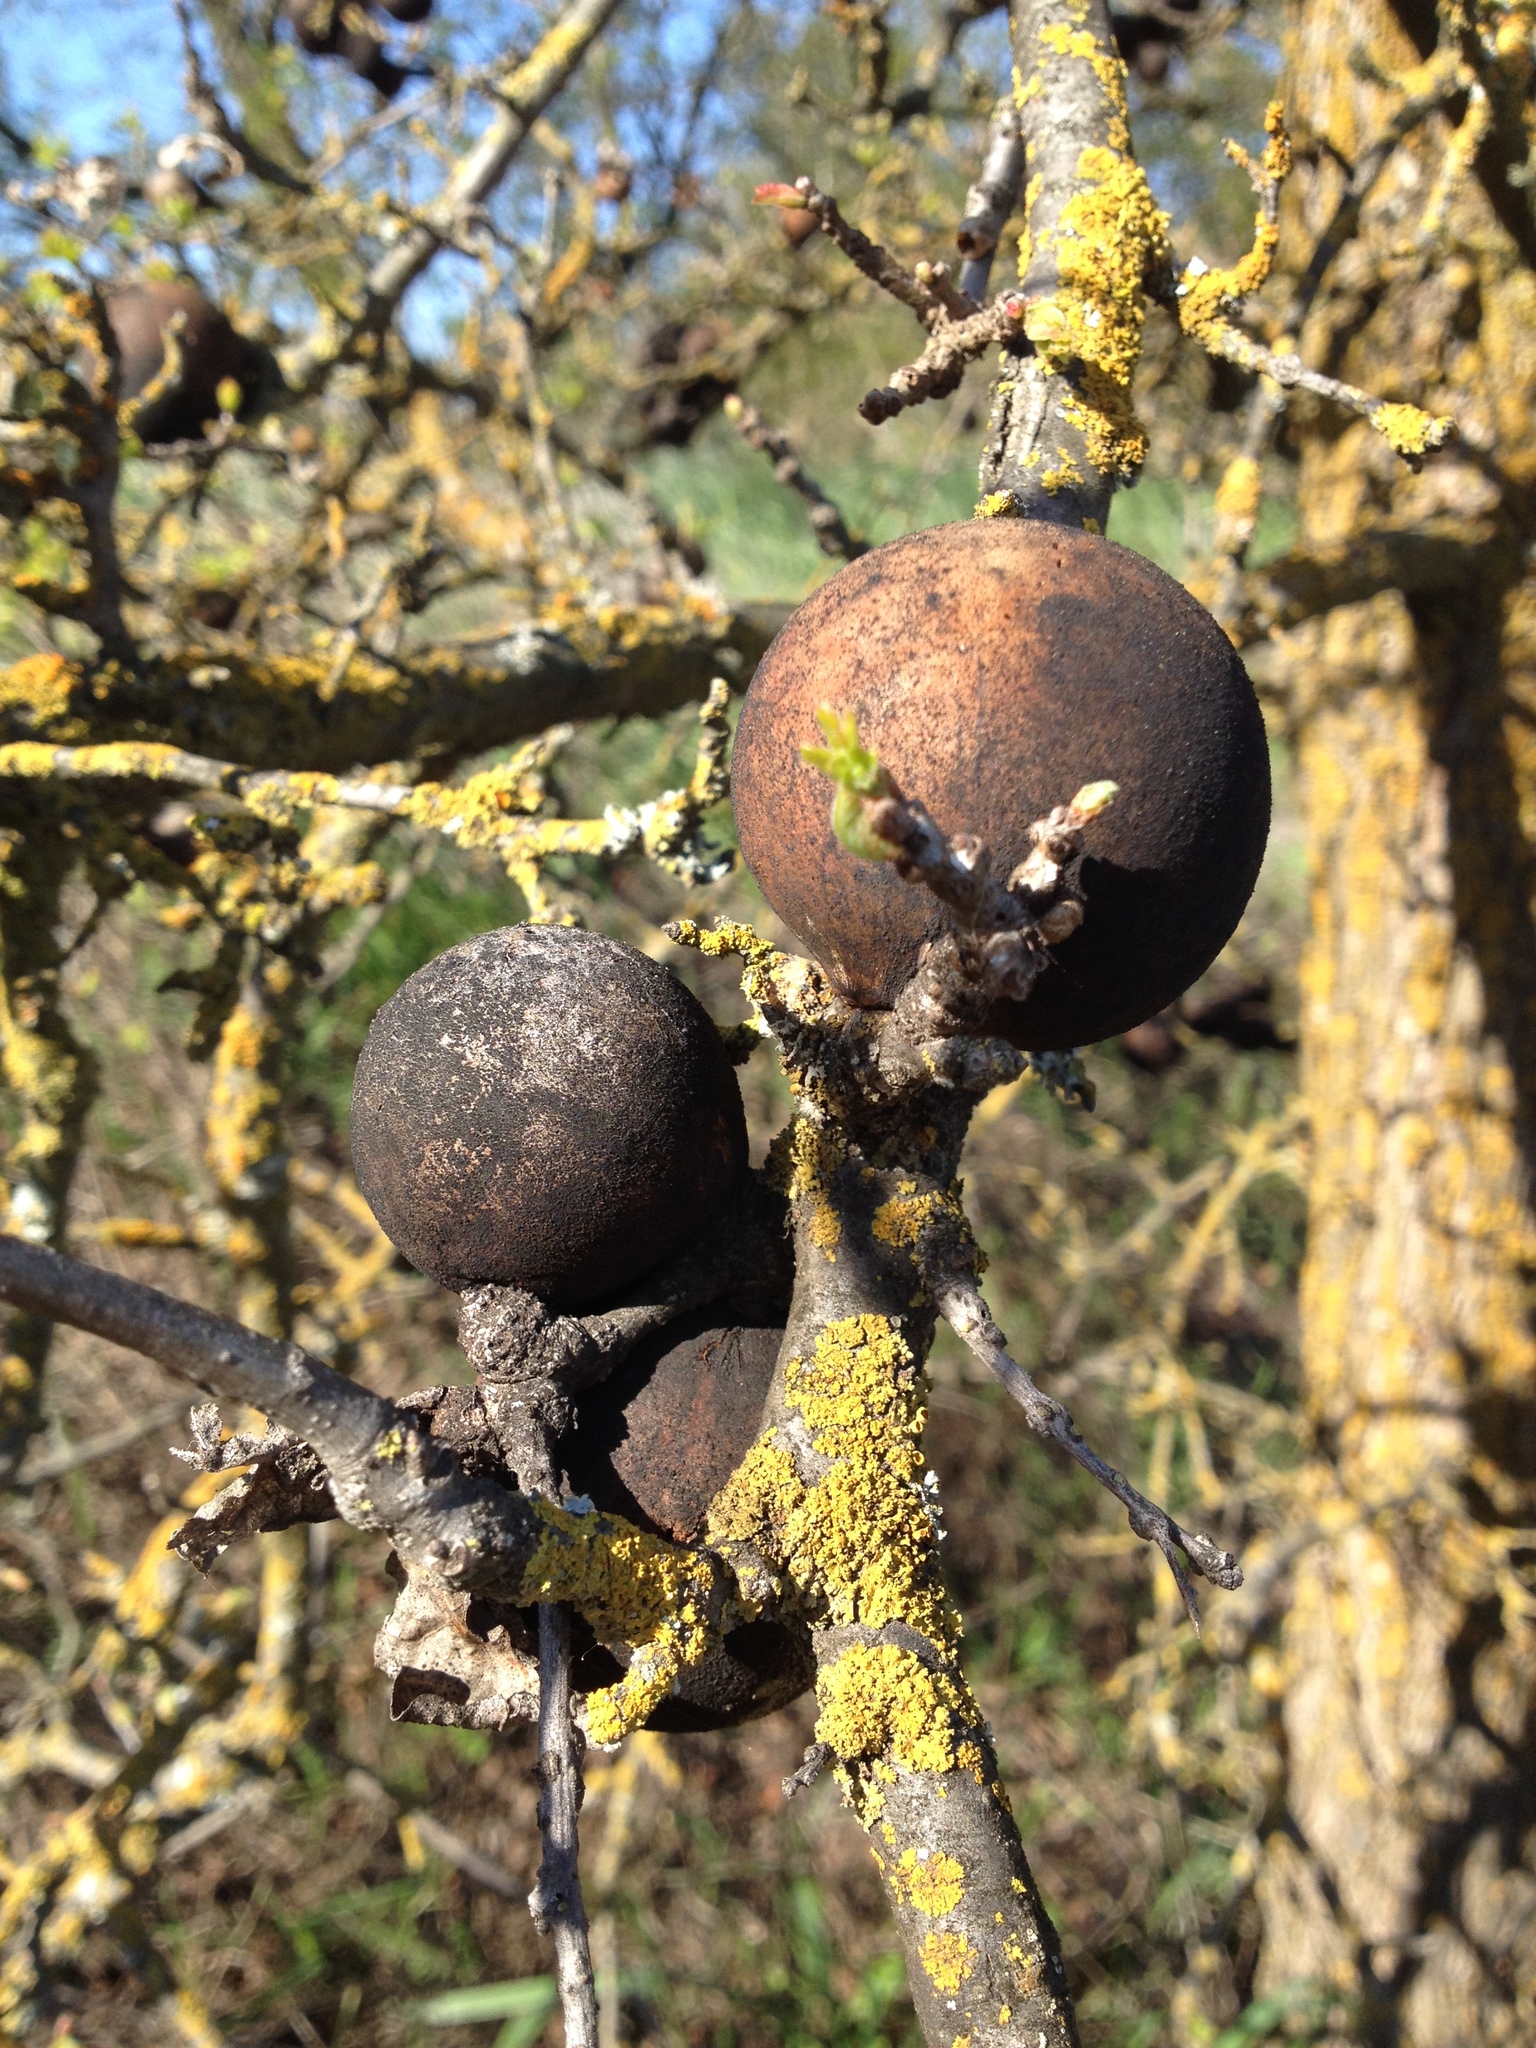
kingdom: Animalia
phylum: Arthropoda
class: Insecta
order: Hymenoptera
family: Cynipidae
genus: Andricus
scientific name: Andricus quercuscalifornicus
